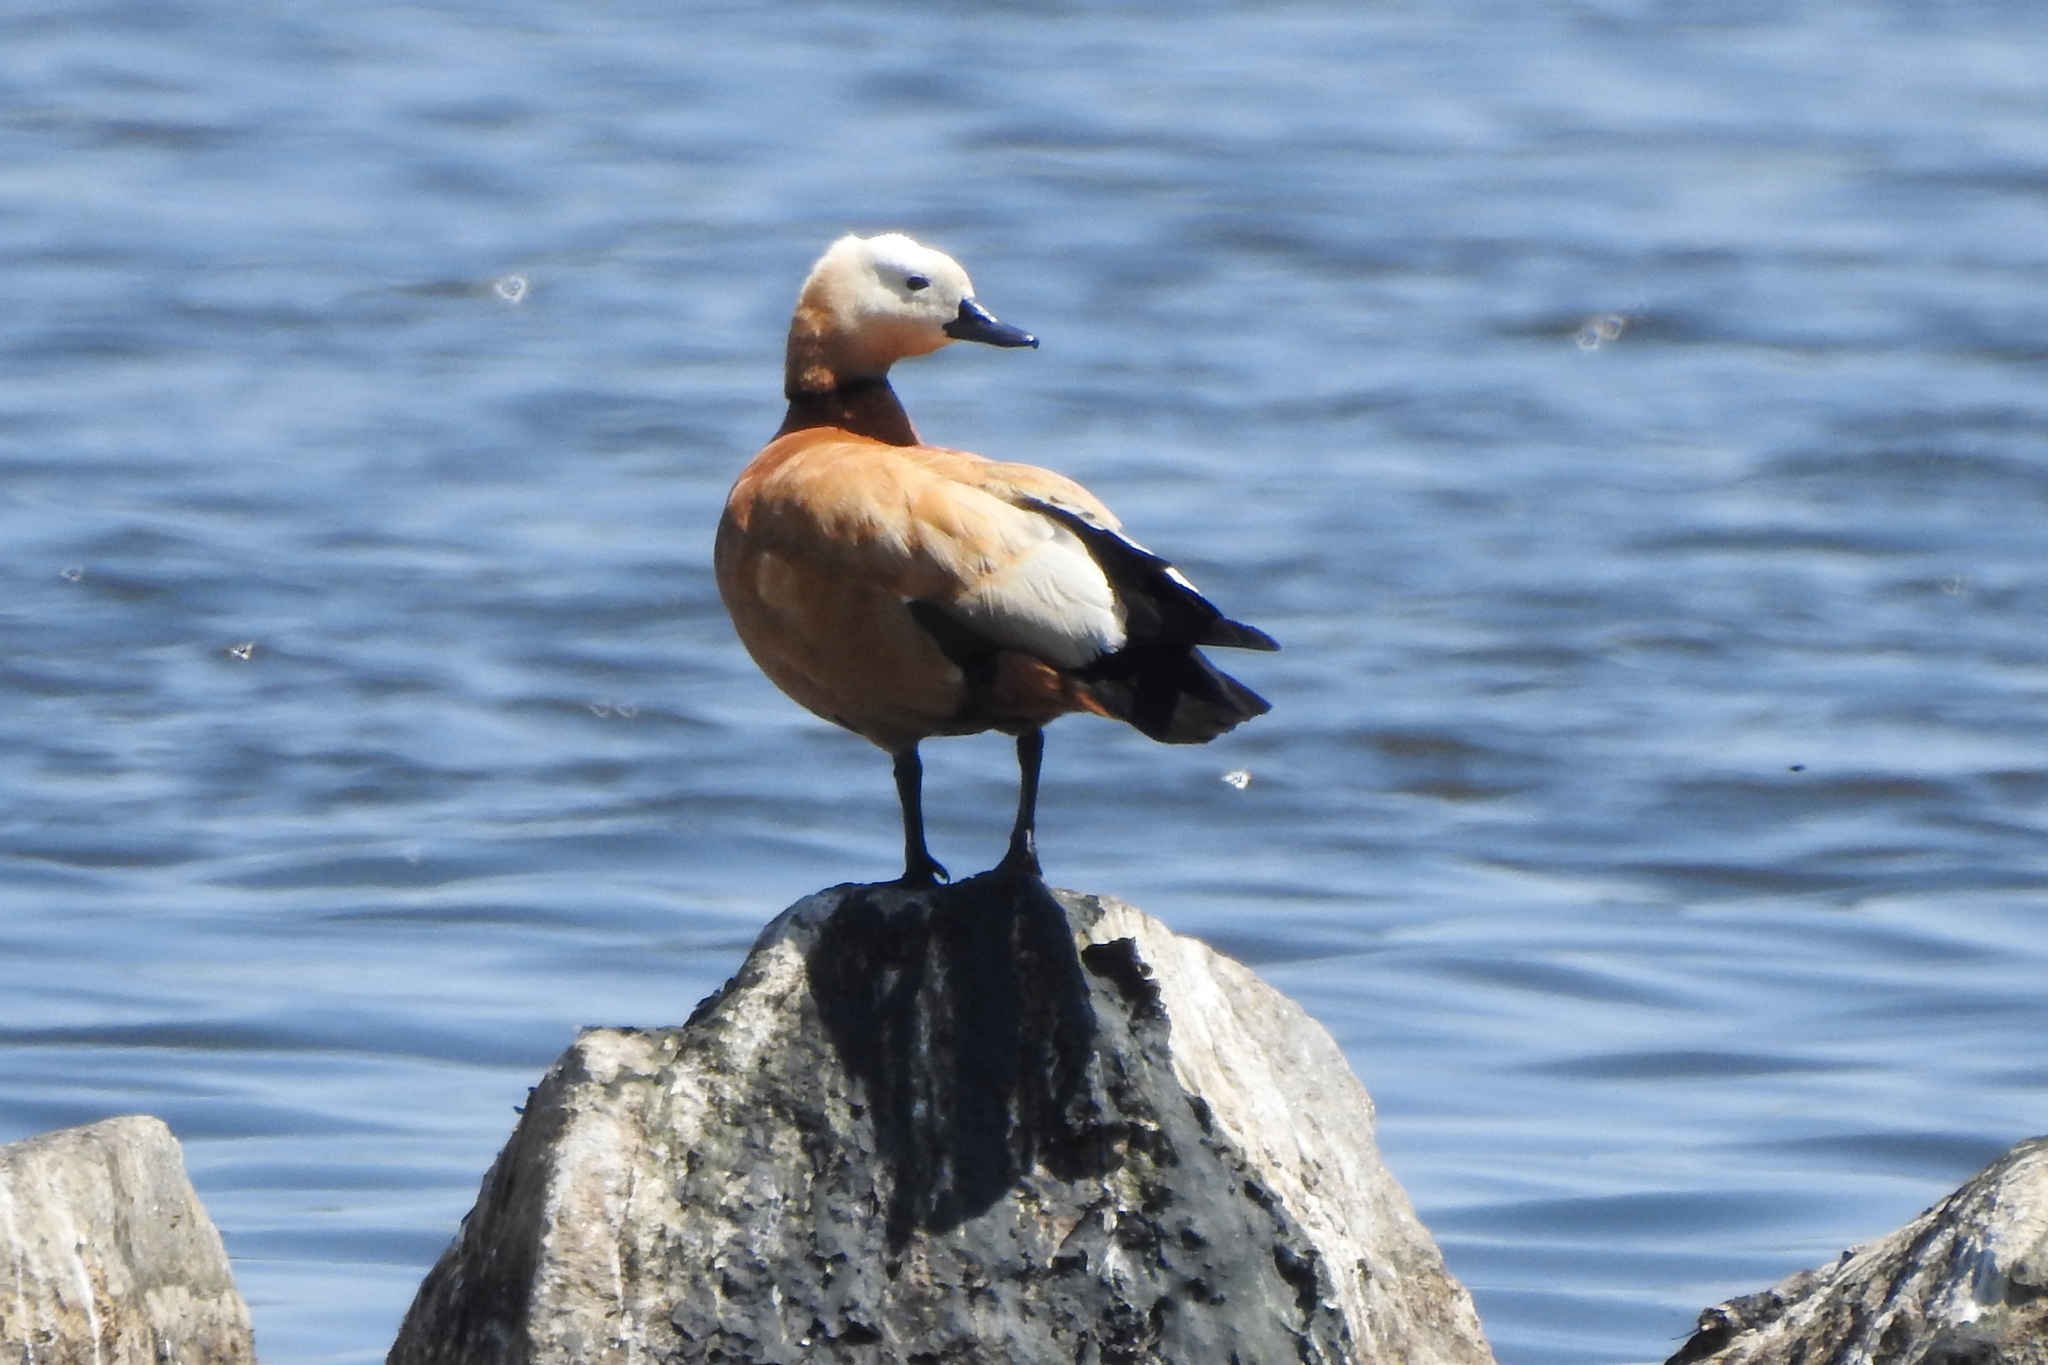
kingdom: Animalia
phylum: Chordata
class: Aves
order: Anseriformes
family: Anatidae
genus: Tadorna
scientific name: Tadorna ferruginea
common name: Ruddy shelduck
